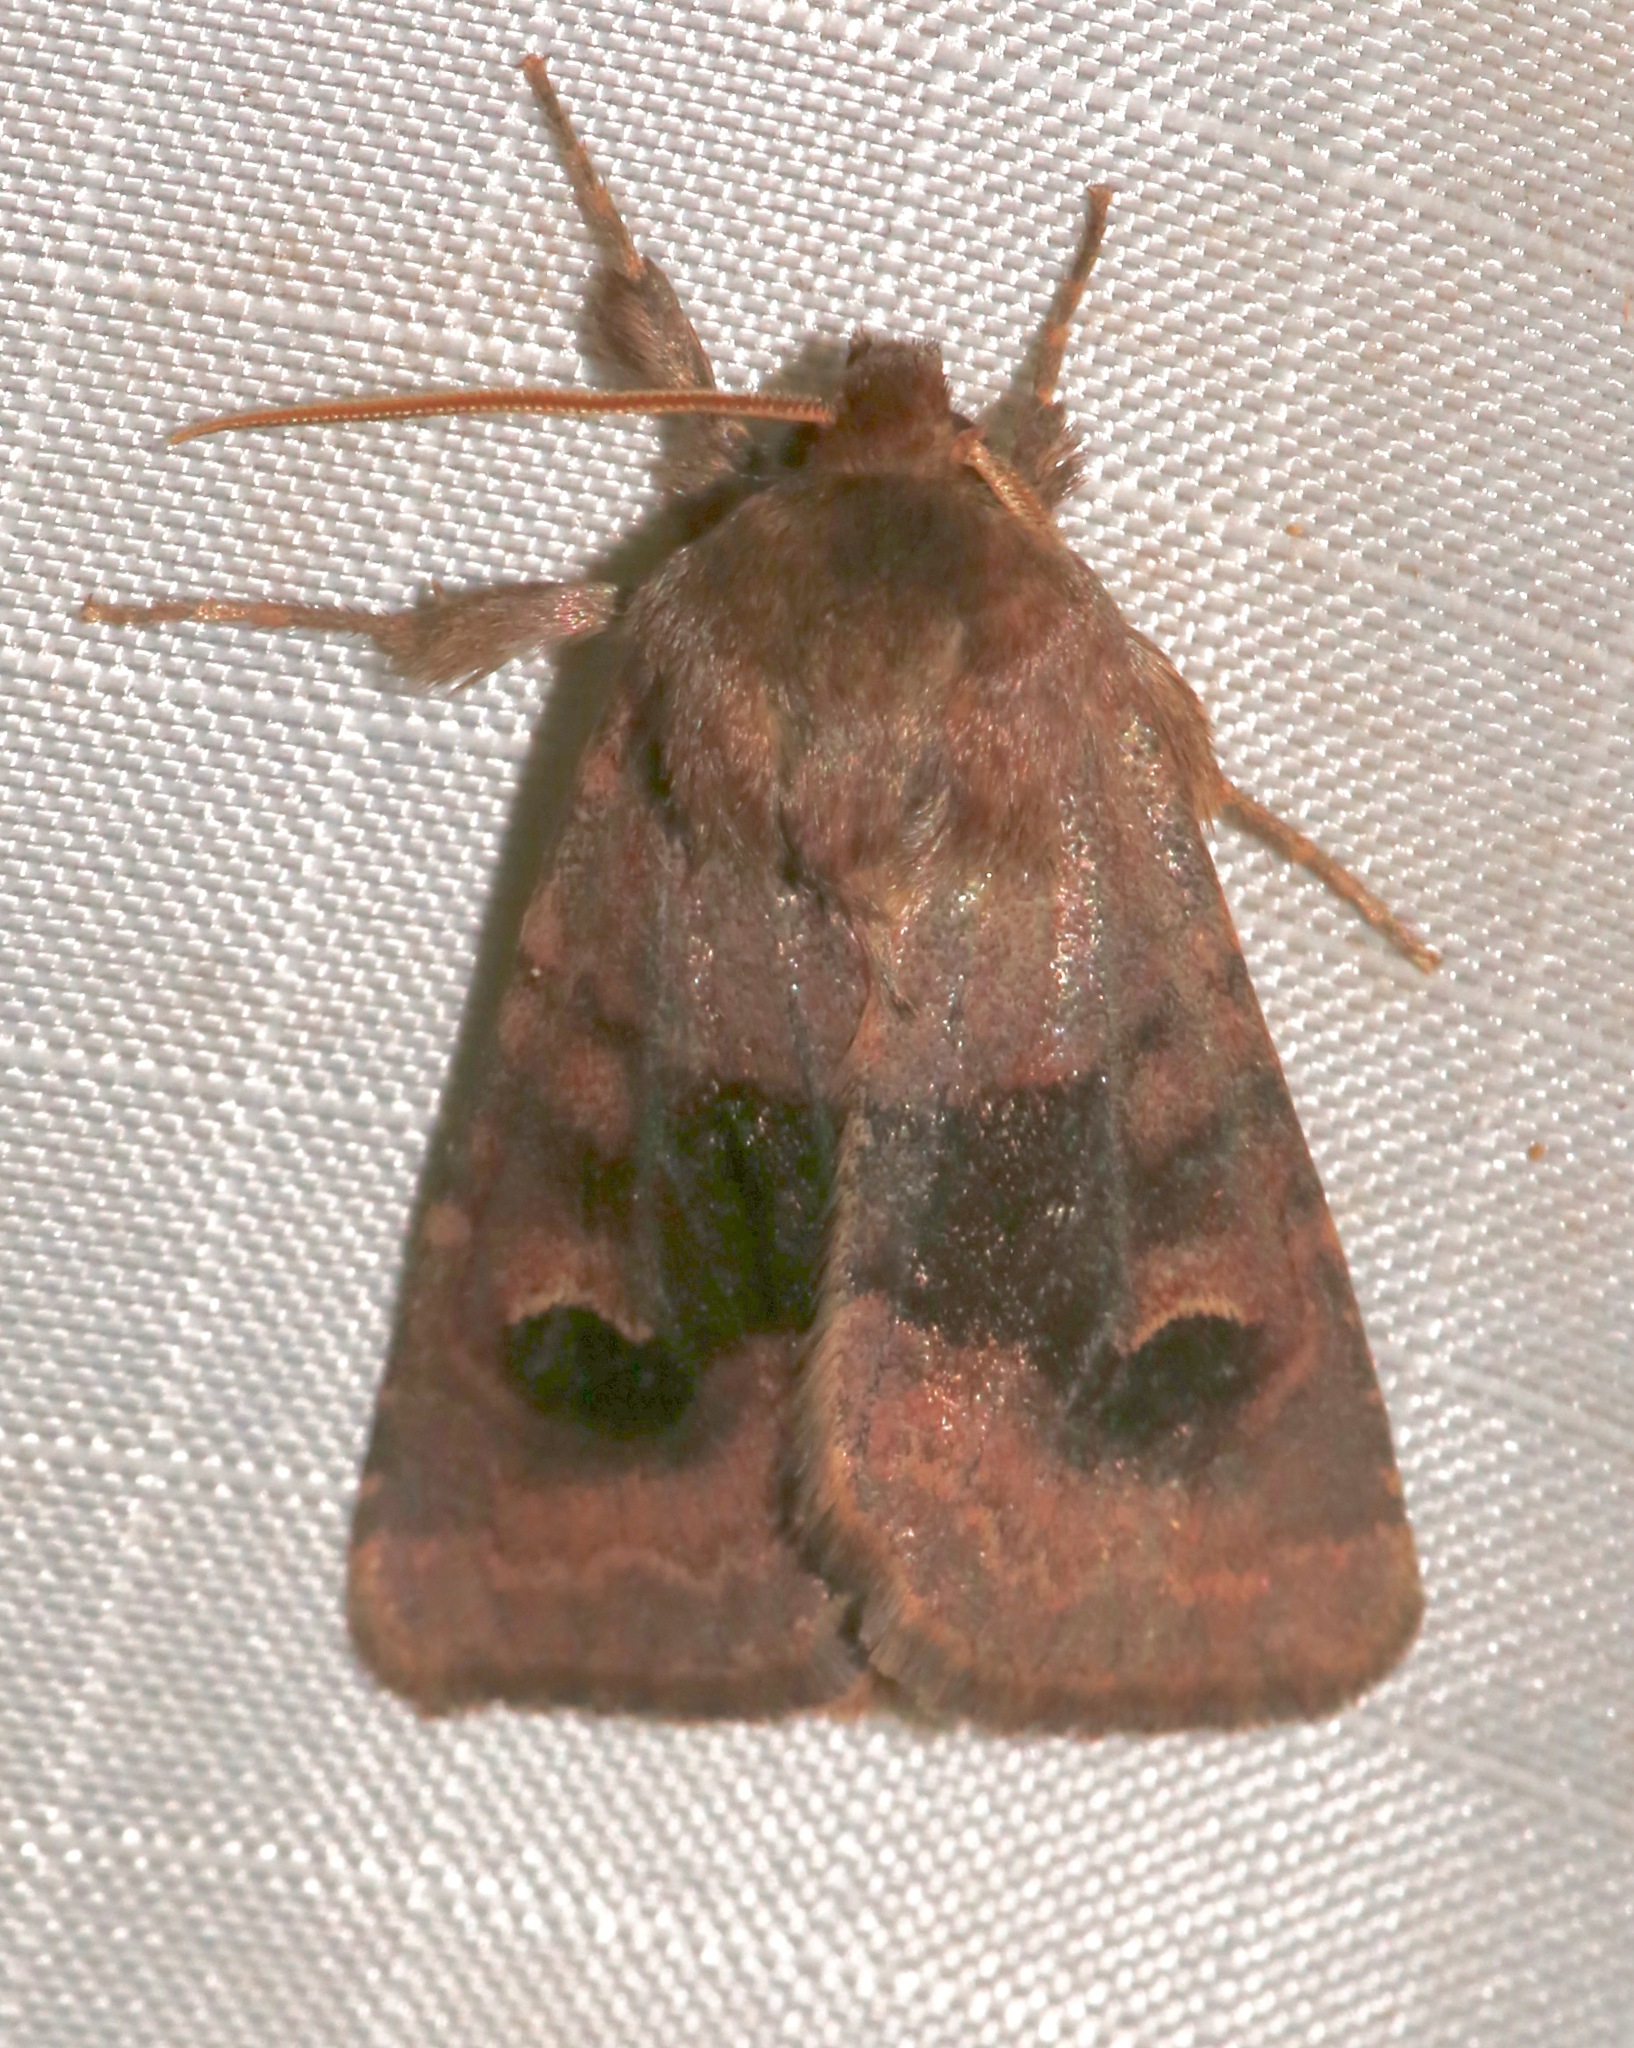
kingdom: Animalia
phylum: Arthropoda
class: Insecta
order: Lepidoptera
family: Noctuidae
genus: Nephelodes
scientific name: Nephelodes minians
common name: Bronzed cutworm
